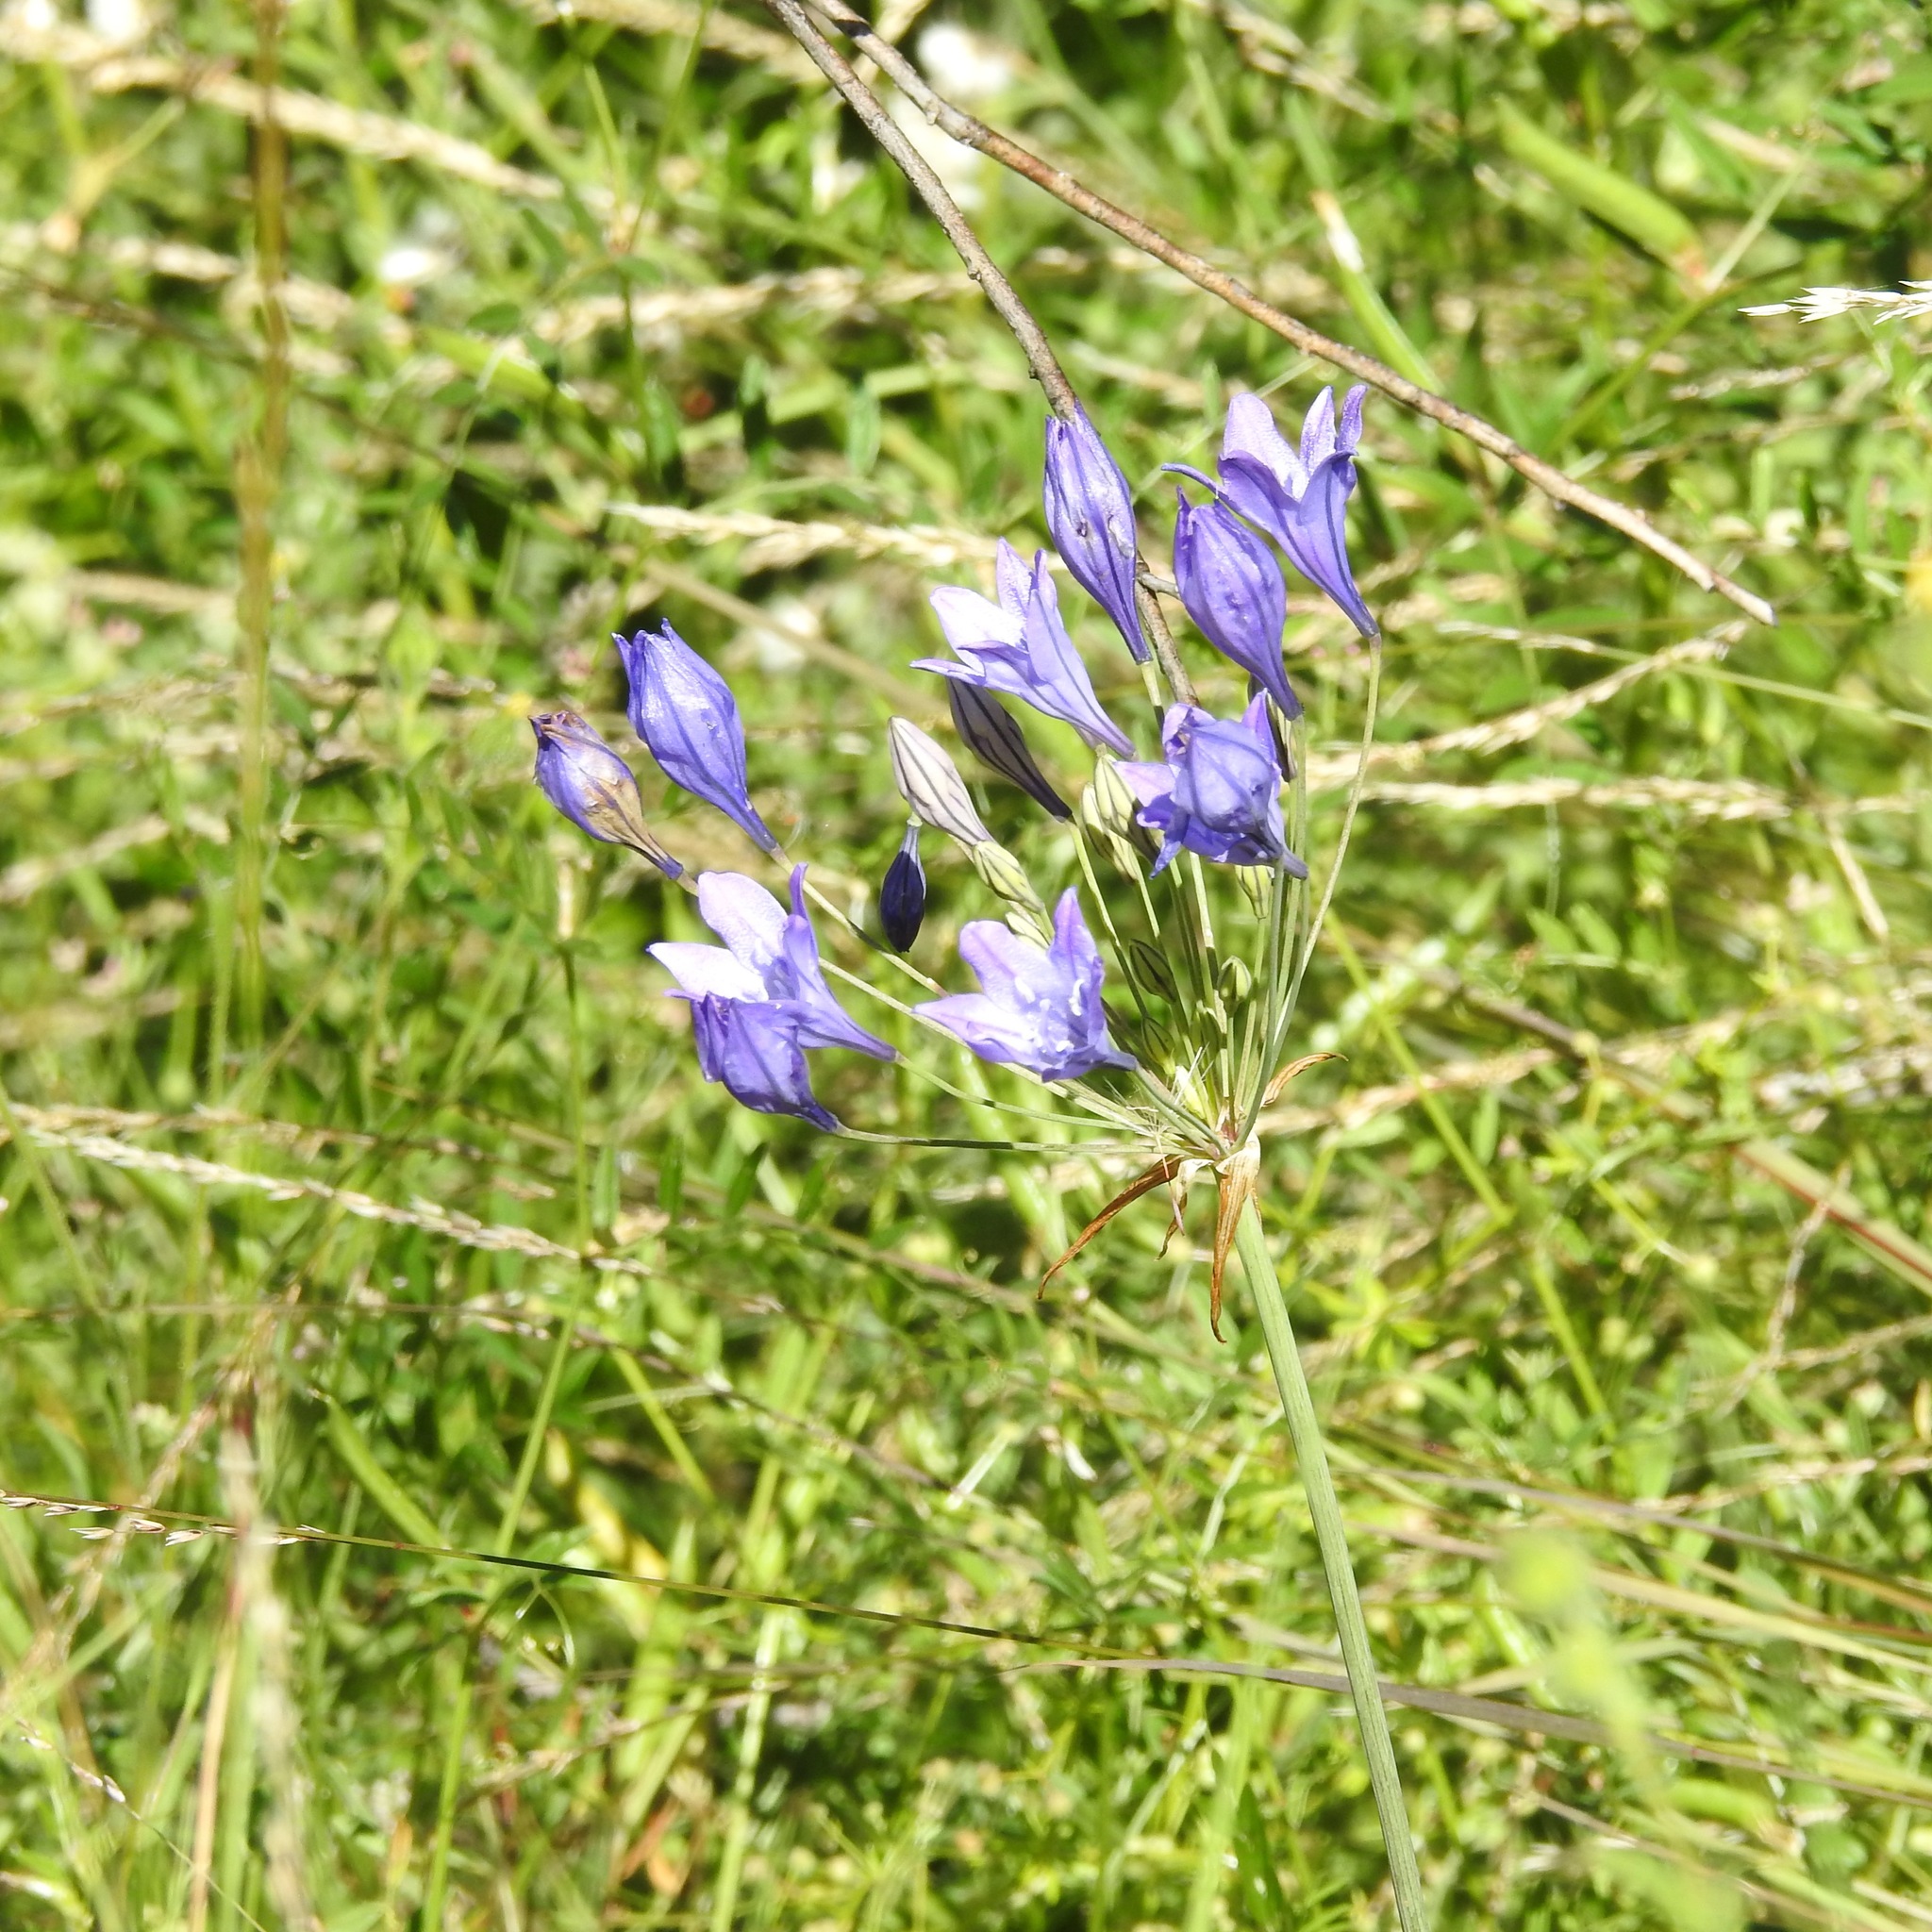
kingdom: Plantae
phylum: Tracheophyta
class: Liliopsida
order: Asparagales
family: Asparagaceae
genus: Triteleia
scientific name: Triteleia laxa
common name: Triplet-lily
